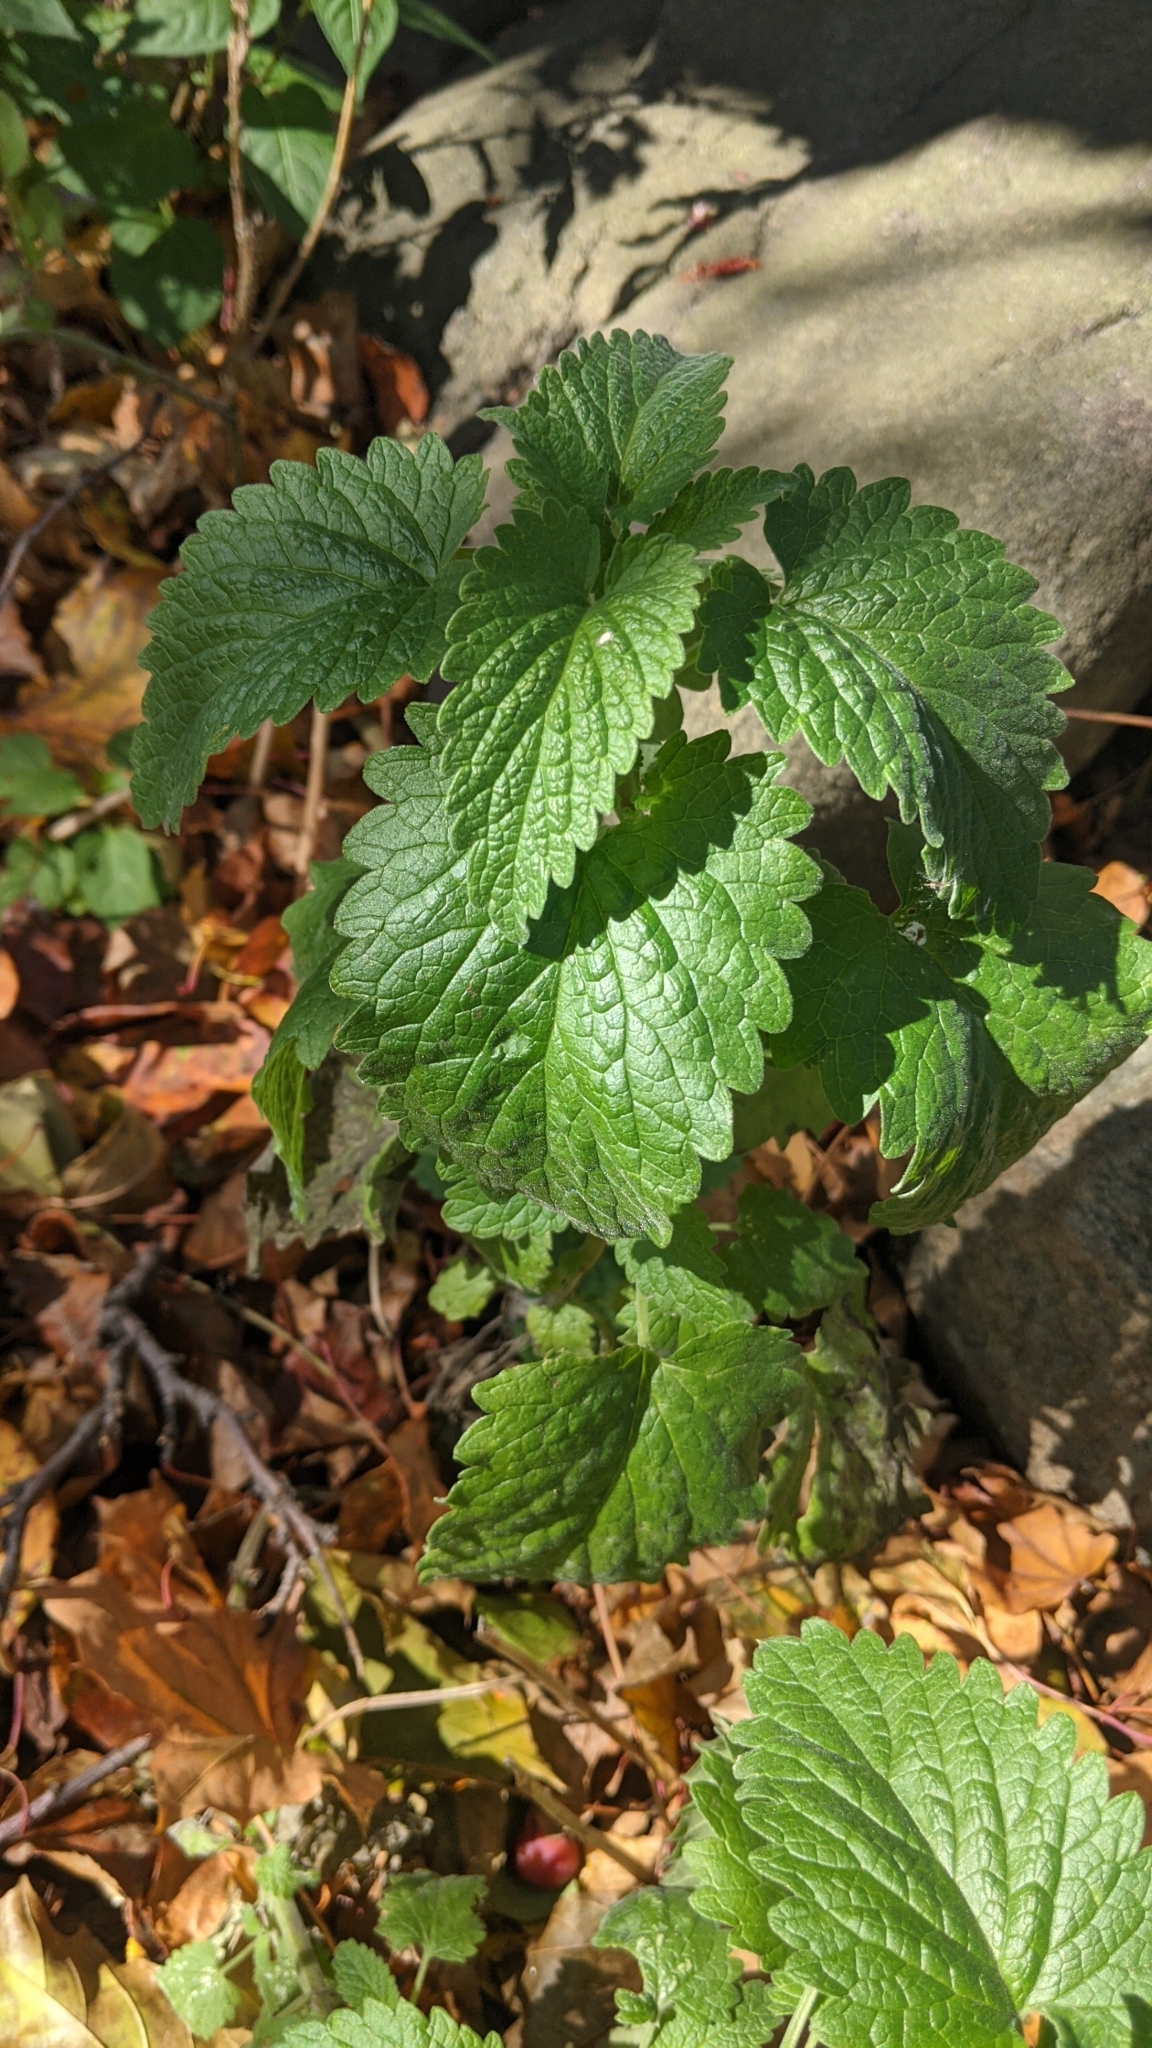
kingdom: Plantae
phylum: Tracheophyta
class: Magnoliopsida
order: Lamiales
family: Lamiaceae
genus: Nepeta
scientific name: Nepeta cataria
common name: Catnip
